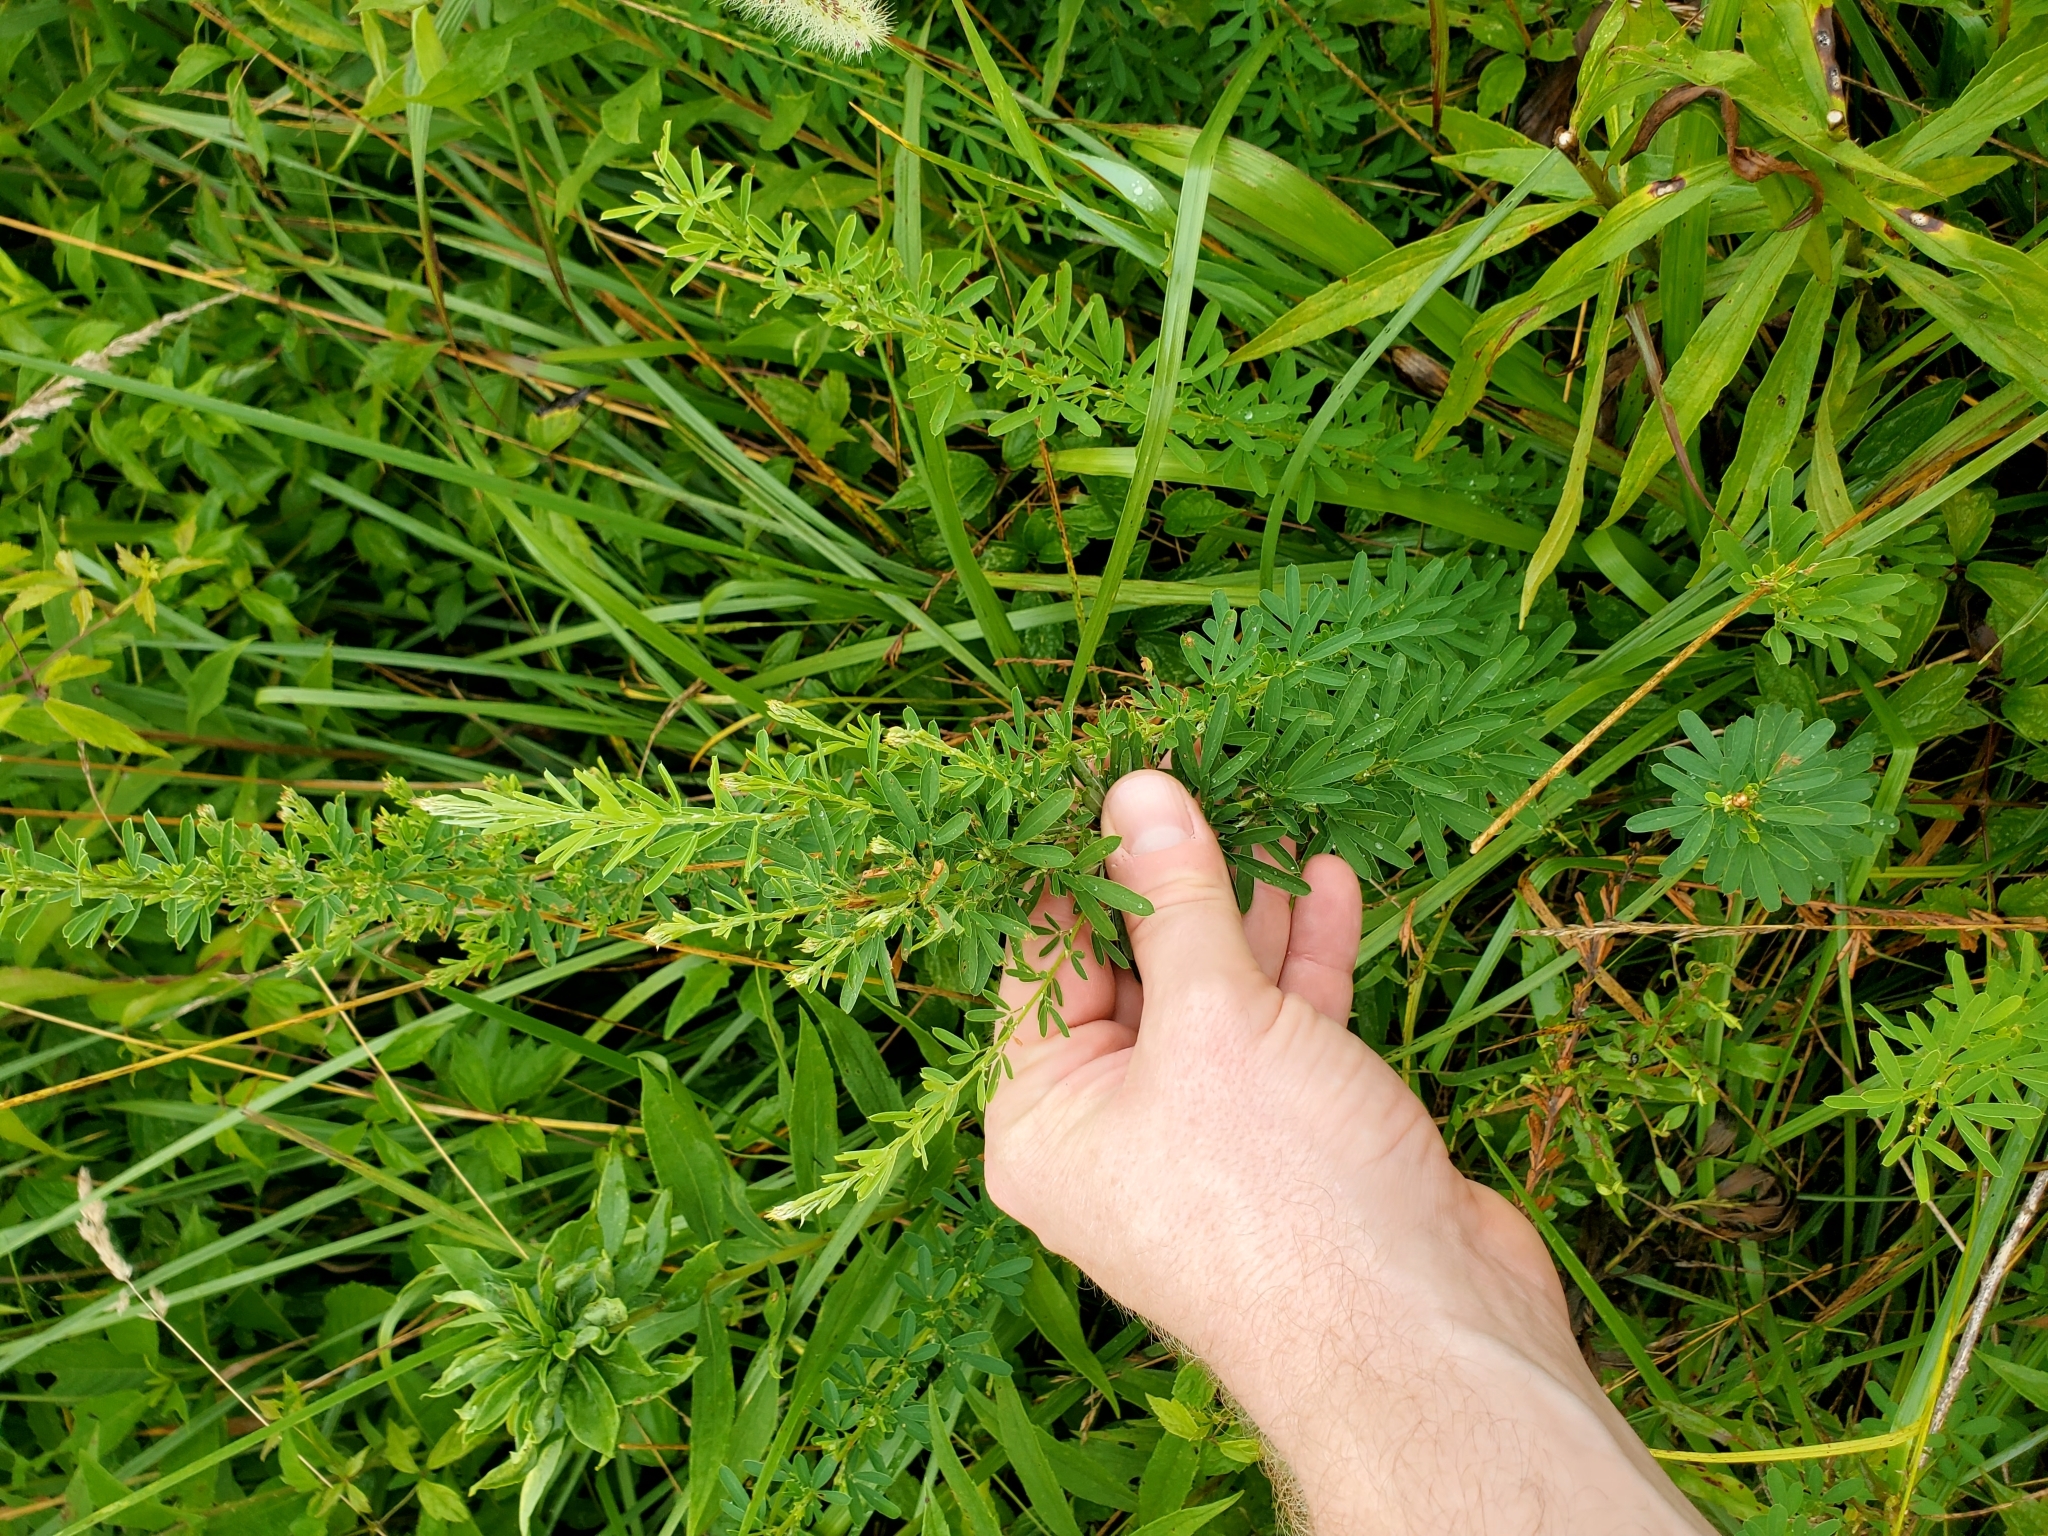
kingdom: Plantae
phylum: Tracheophyta
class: Magnoliopsida
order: Fabales
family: Fabaceae
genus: Lespedeza
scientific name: Lespedeza cuneata
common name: Chinese bush-clover
